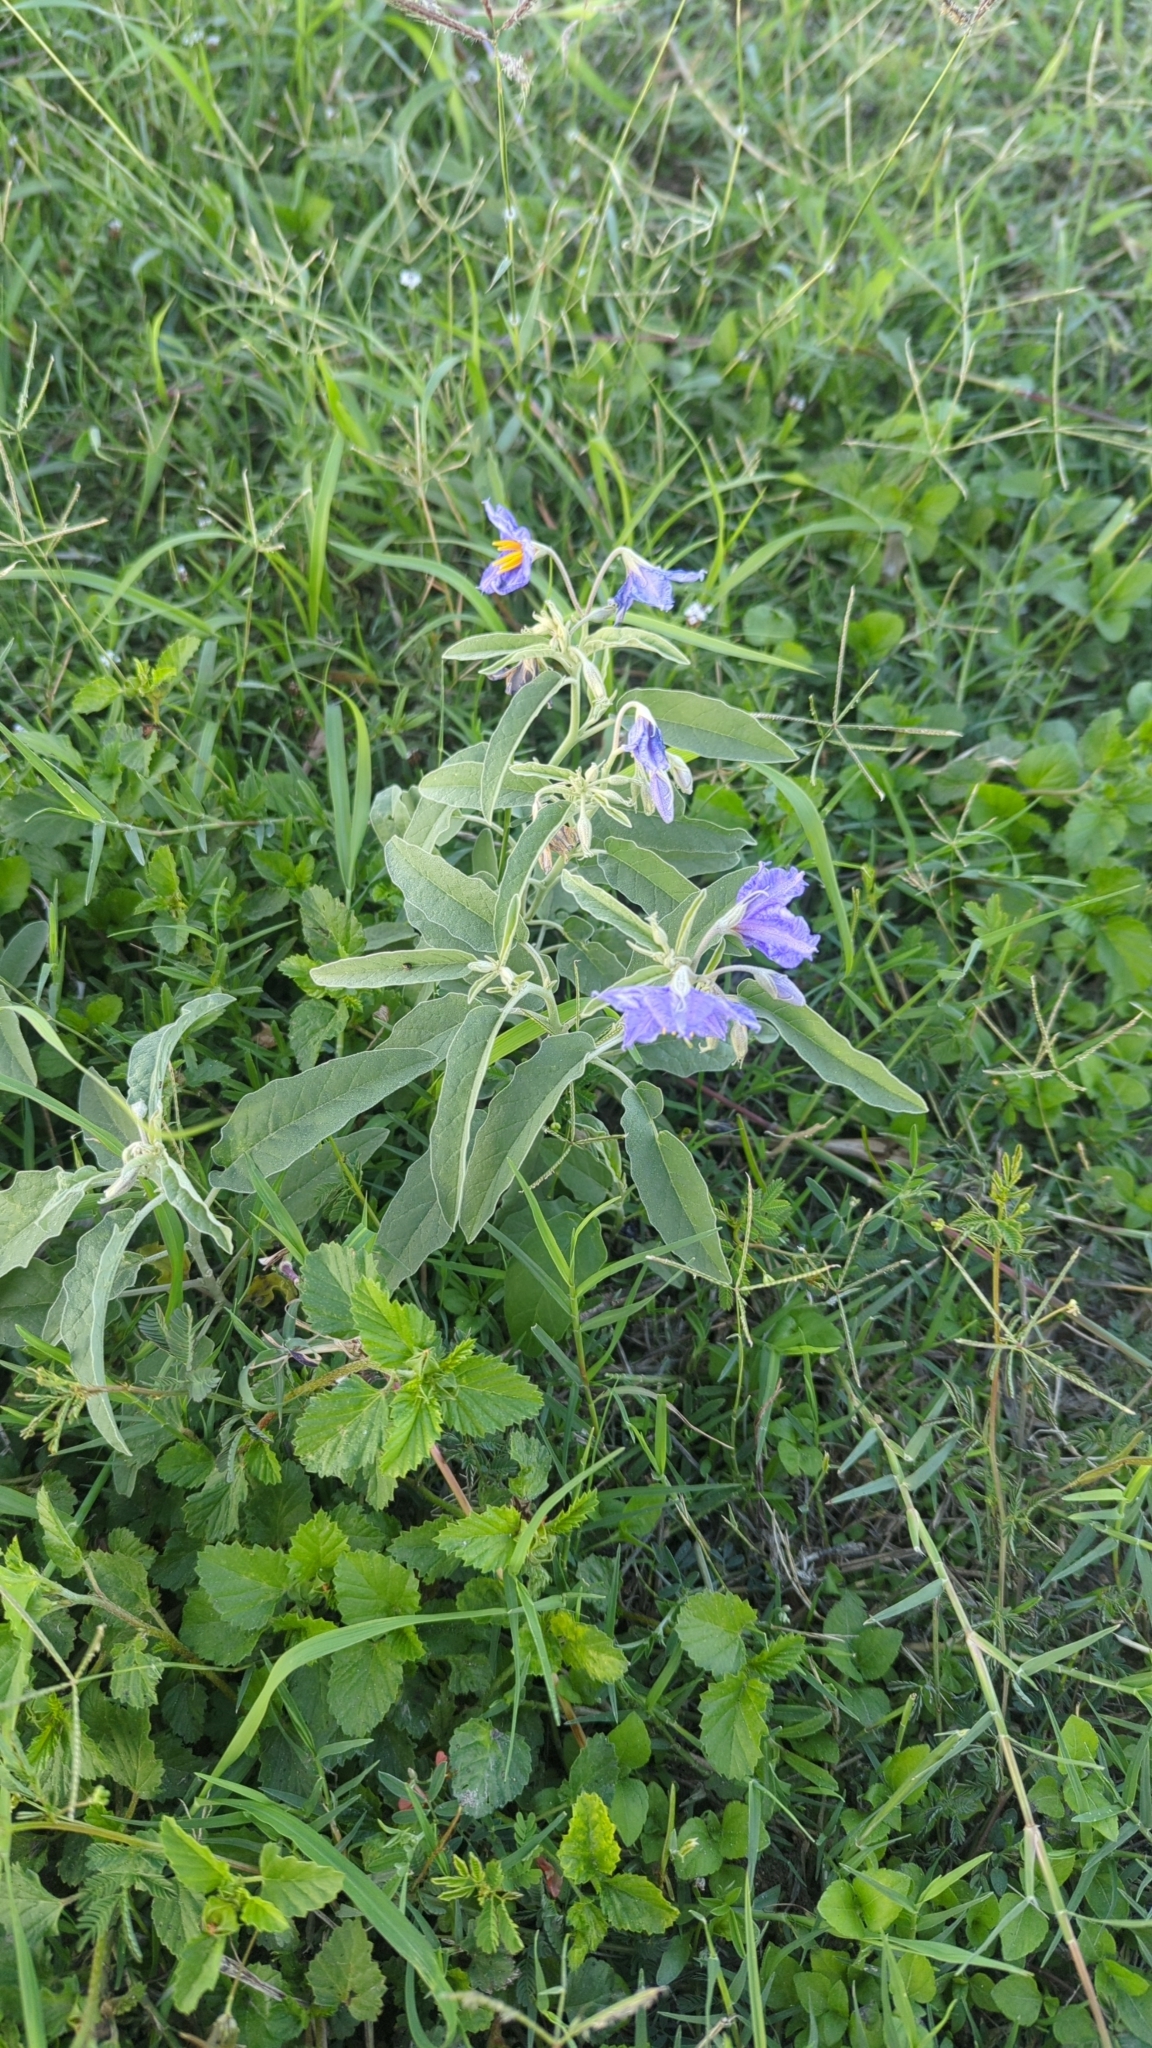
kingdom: Plantae
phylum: Tracheophyta
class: Magnoliopsida
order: Solanales
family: Solanaceae
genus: Solanum
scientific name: Solanum elaeagnifolium
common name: Silverleaf nightshade
